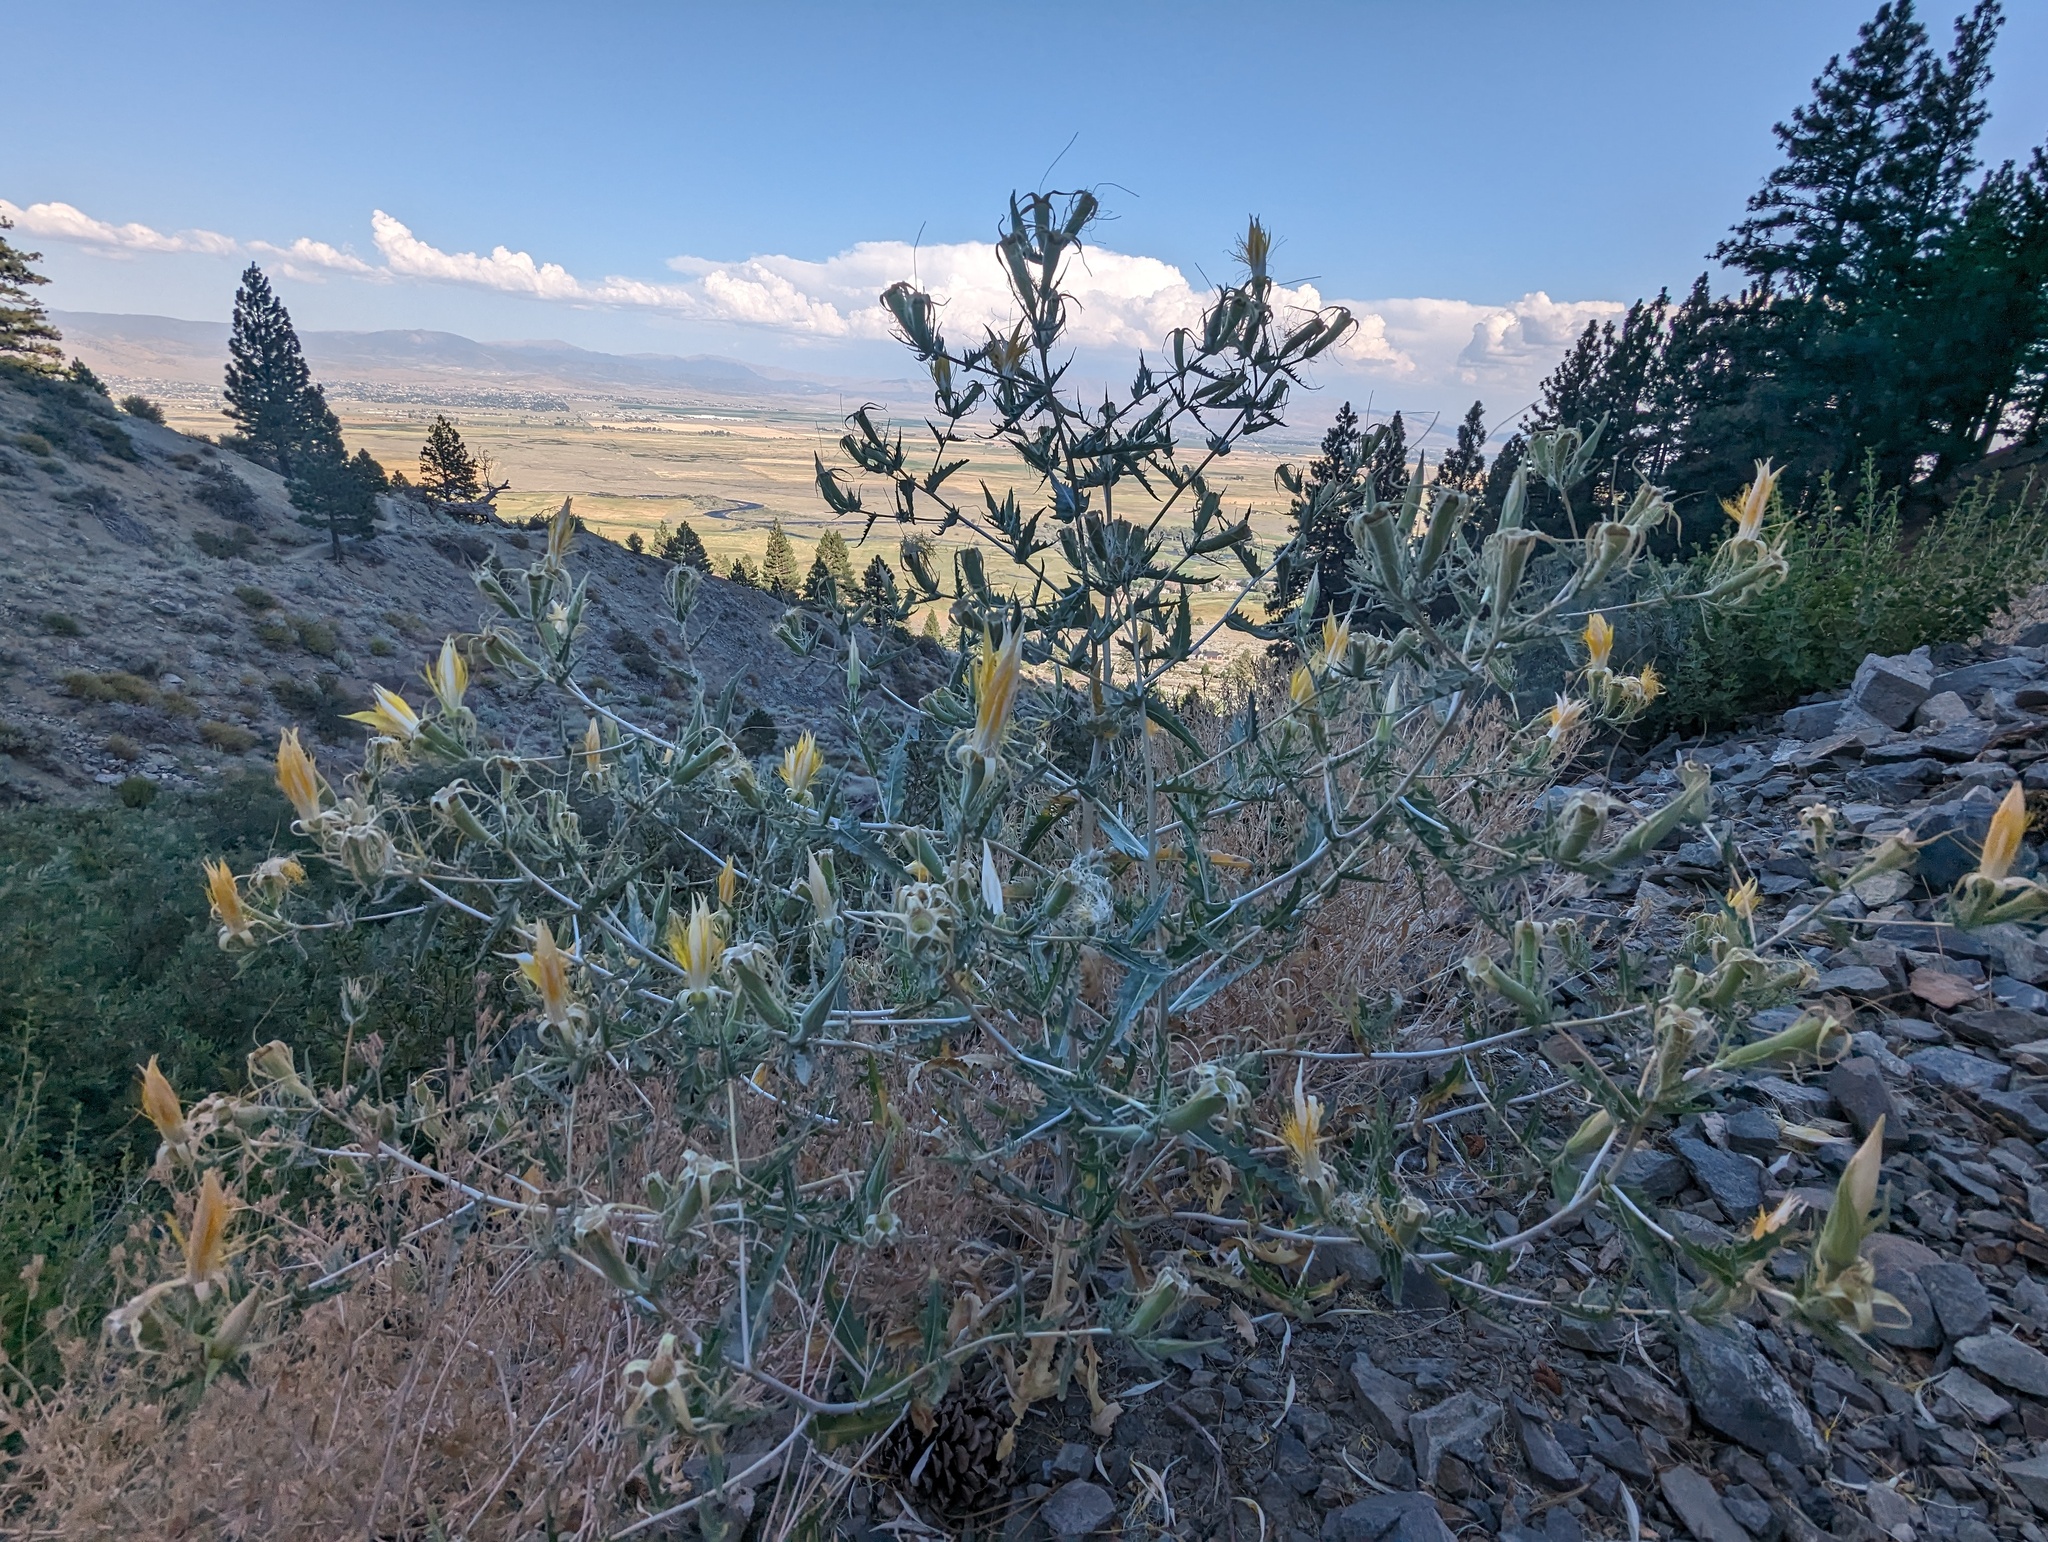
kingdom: Plantae
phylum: Tracheophyta
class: Magnoliopsida
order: Cornales
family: Loasaceae
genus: Mentzelia
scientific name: Mentzelia laevicaulis
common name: Smooth-stem blazingstar
